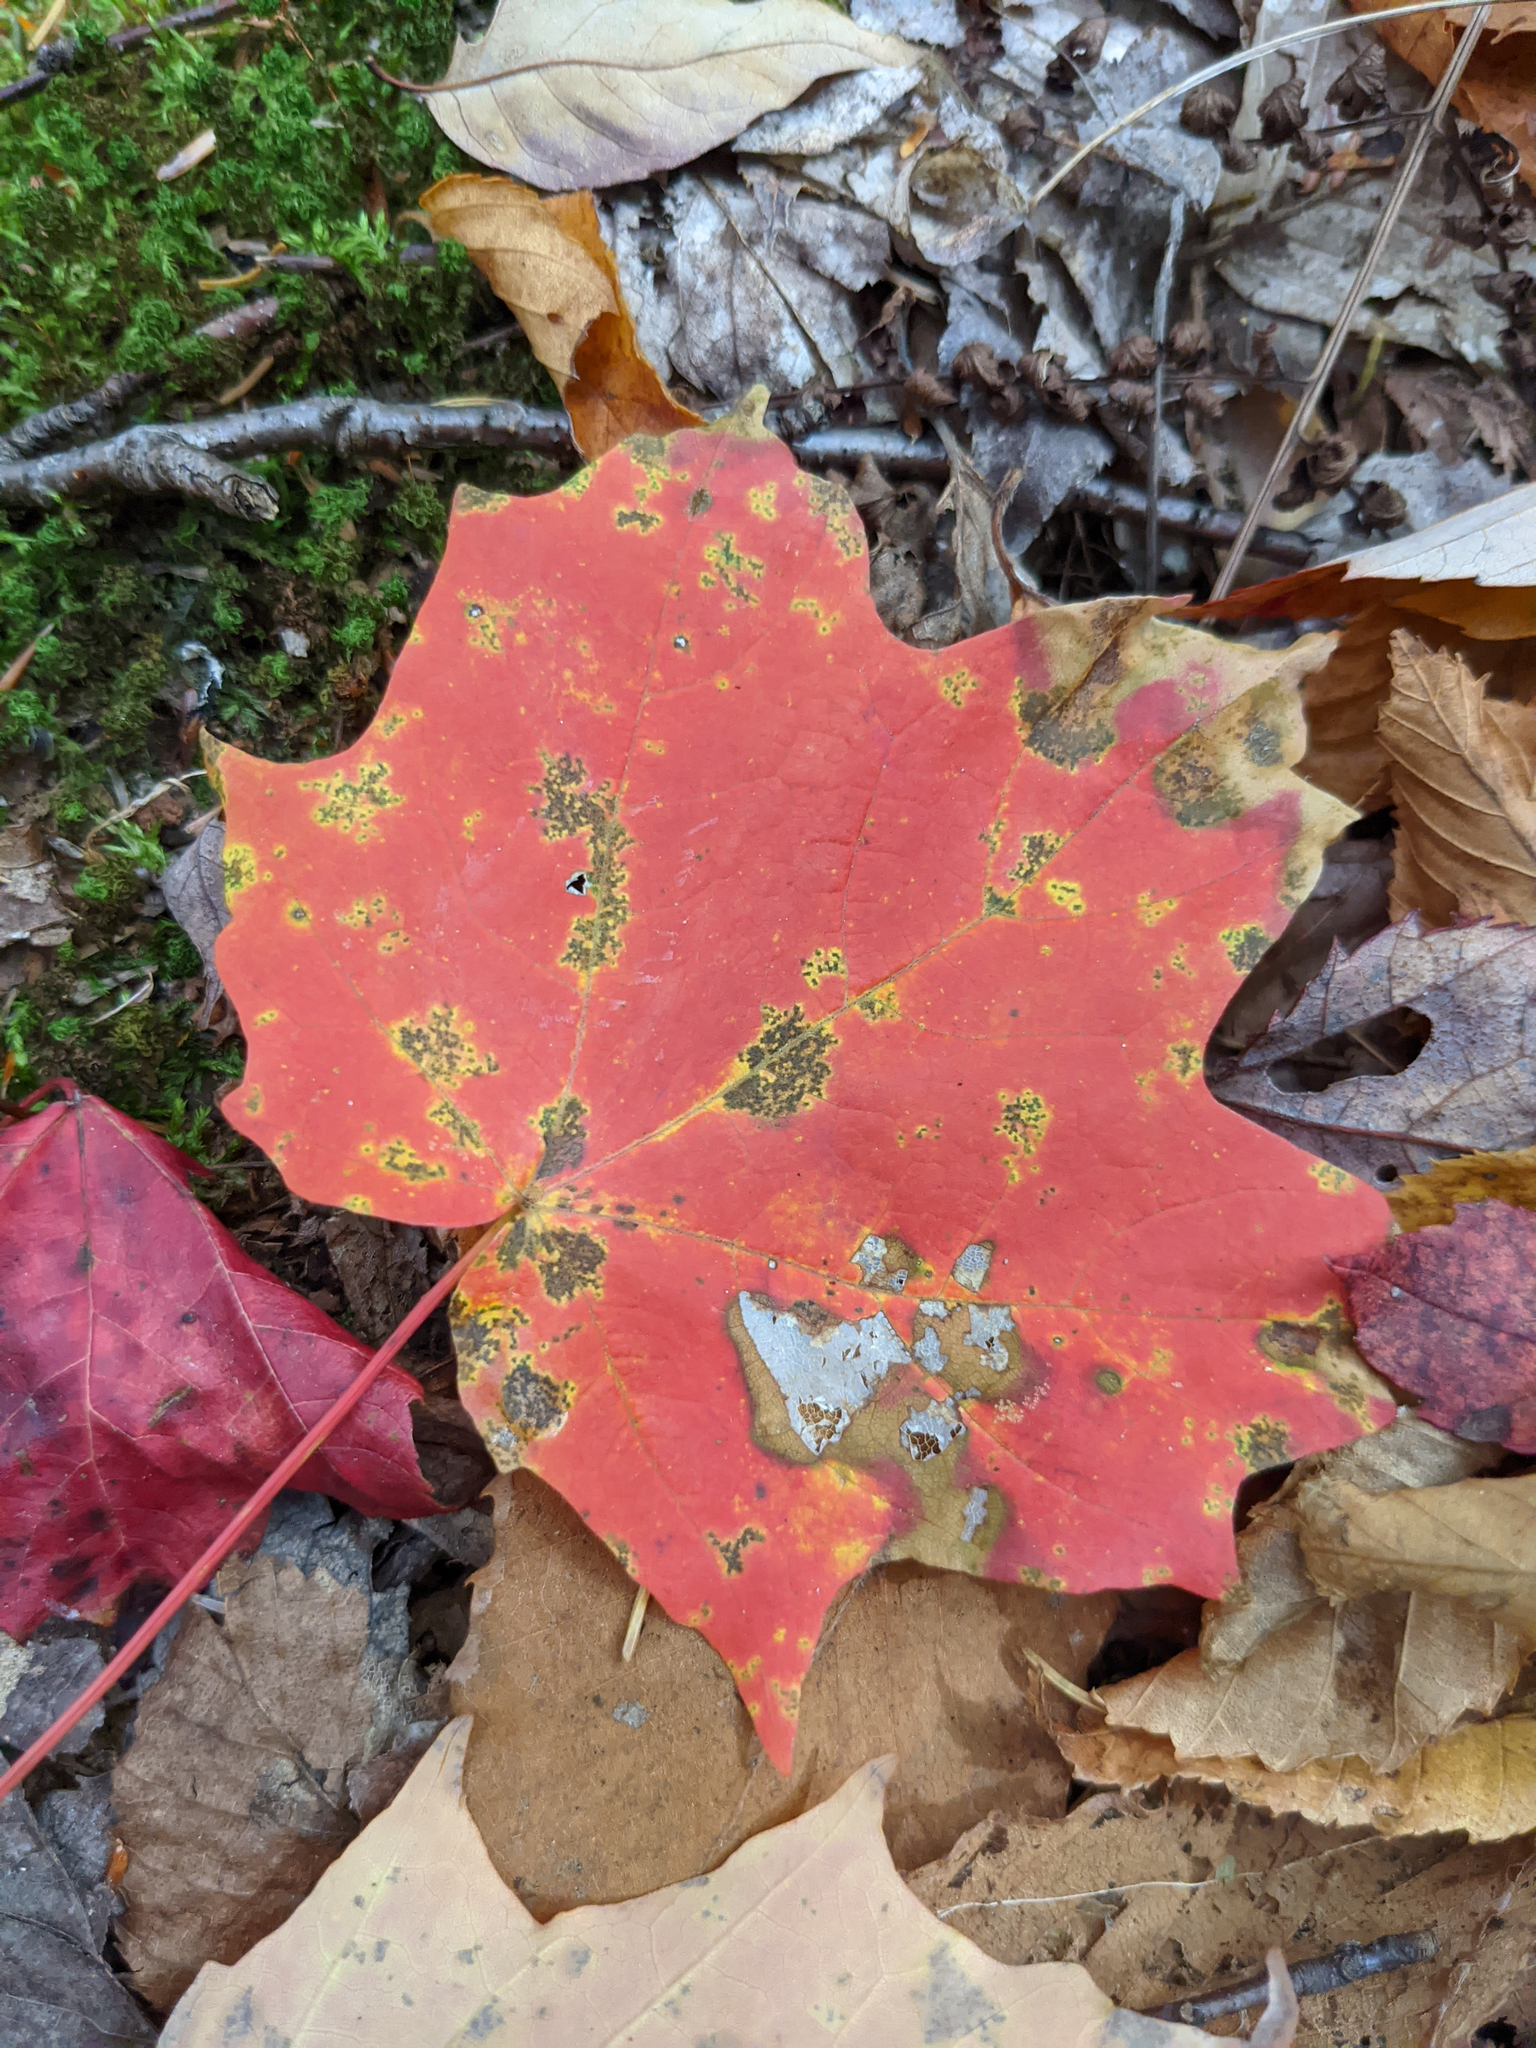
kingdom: Plantae
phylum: Tracheophyta
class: Magnoliopsida
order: Sapindales
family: Sapindaceae
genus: Acer
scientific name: Acer saccharum
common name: Sugar maple
